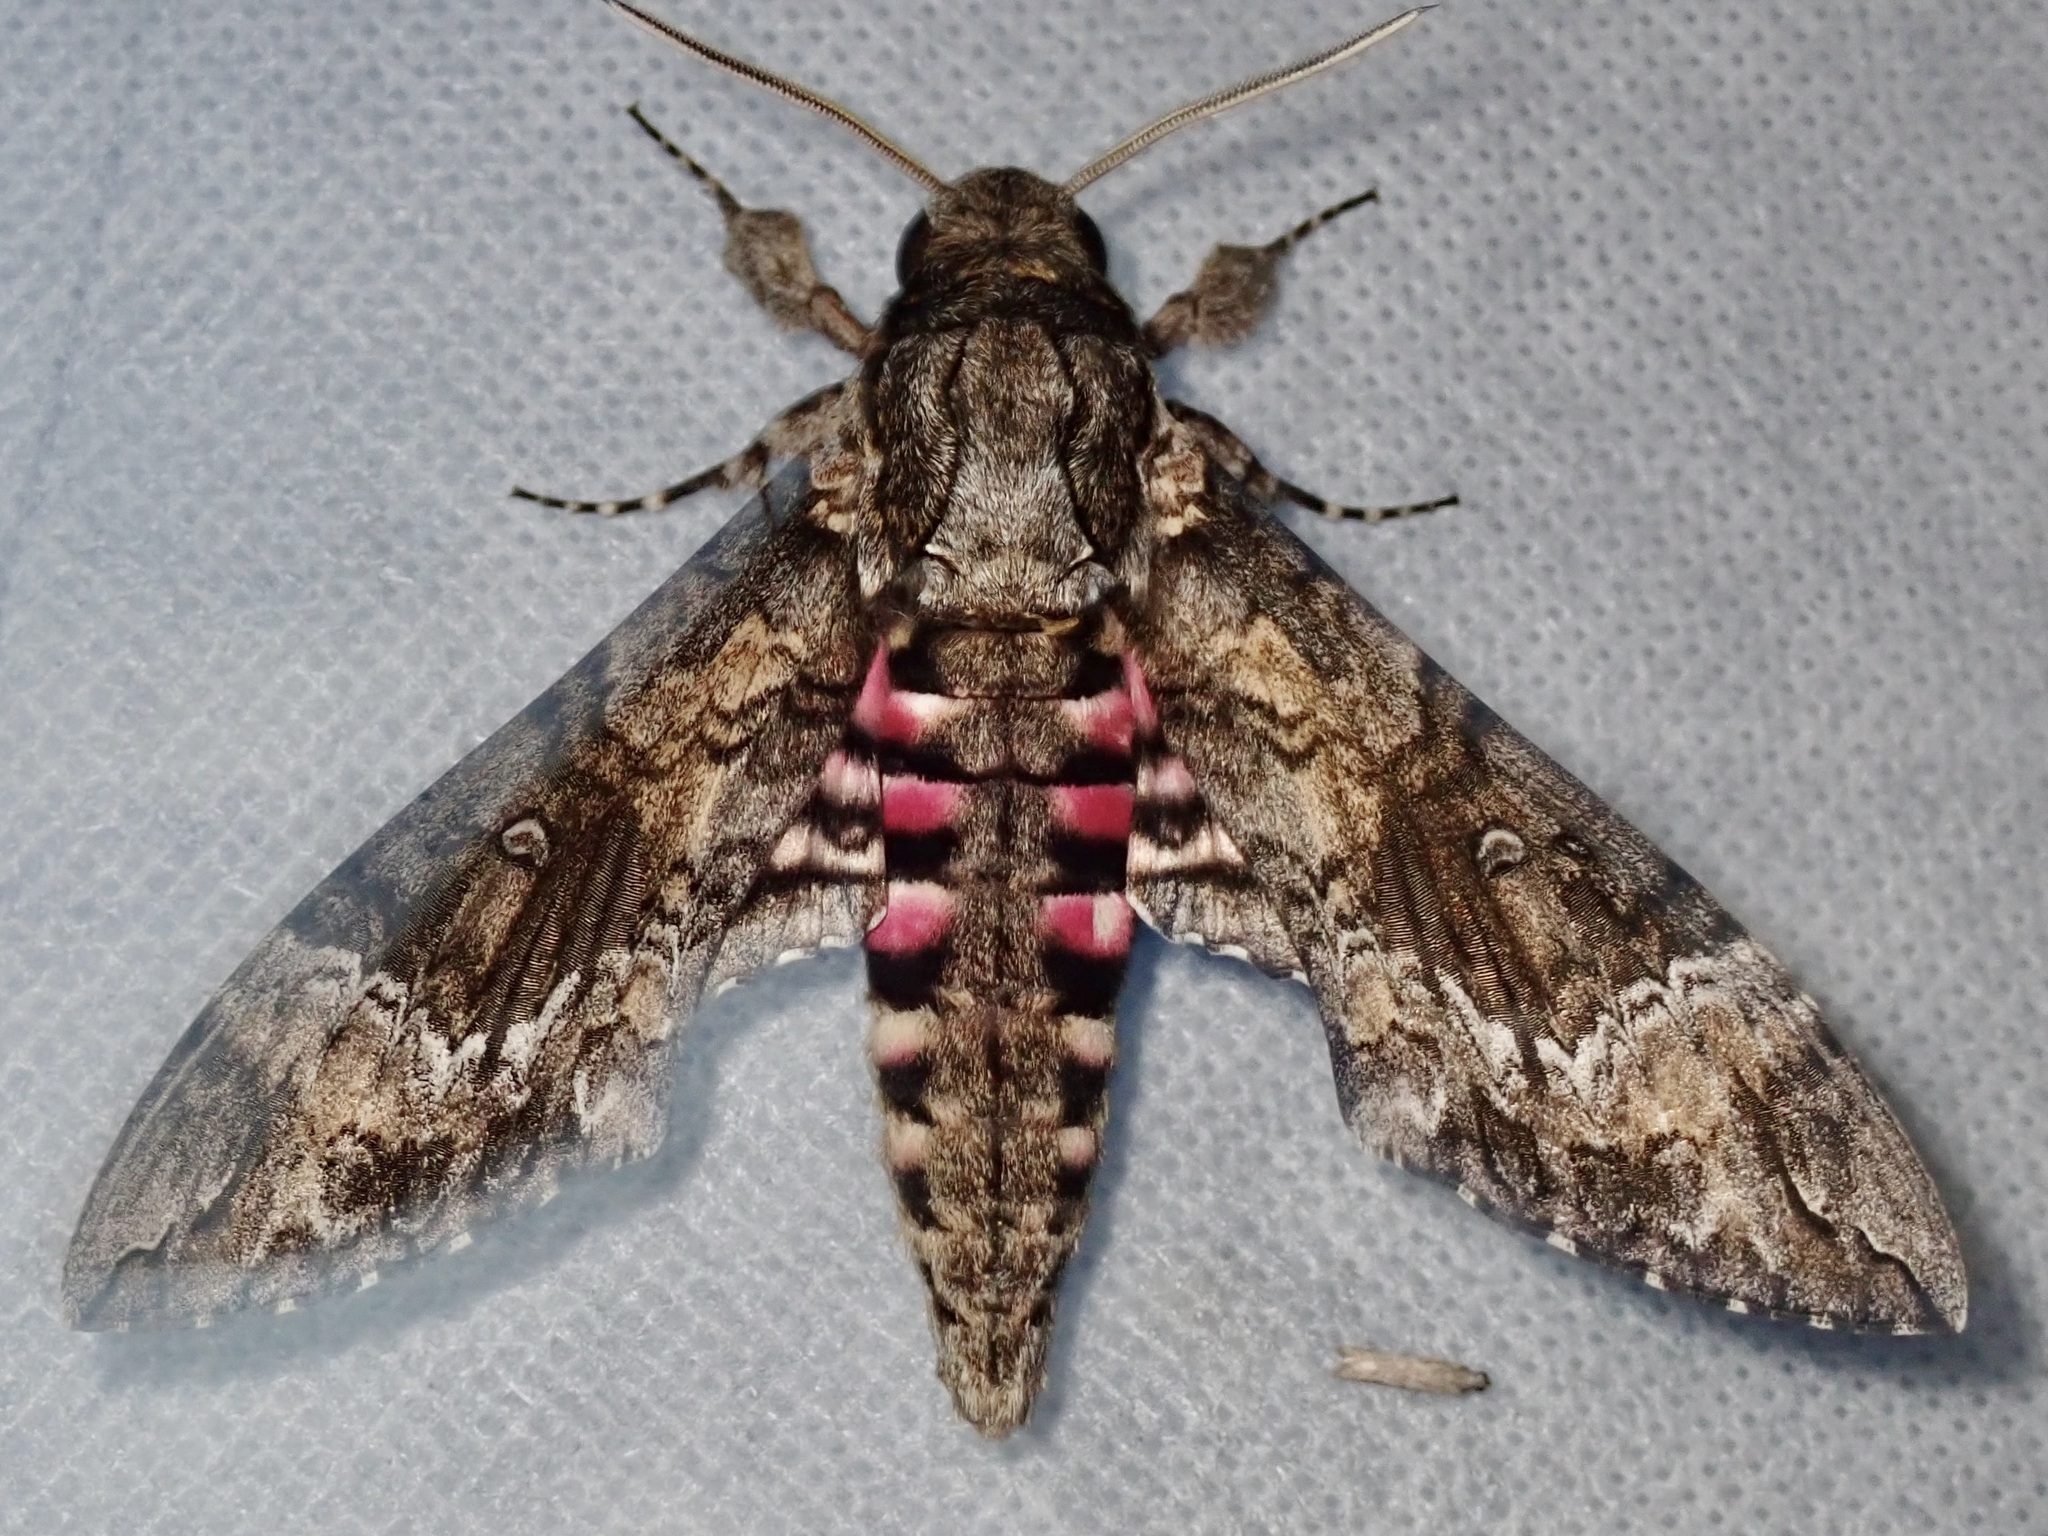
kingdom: Animalia
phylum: Arthropoda
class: Insecta
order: Lepidoptera
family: Sphingidae
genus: Agrius
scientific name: Agrius cingulata
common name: Pink-spotted hawkmoth
